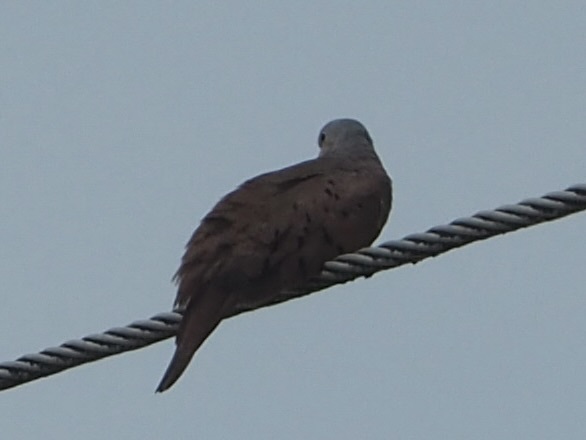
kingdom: Animalia
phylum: Chordata
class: Aves
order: Columbiformes
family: Columbidae
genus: Columbina
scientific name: Columbina talpacoti
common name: Ruddy ground dove
